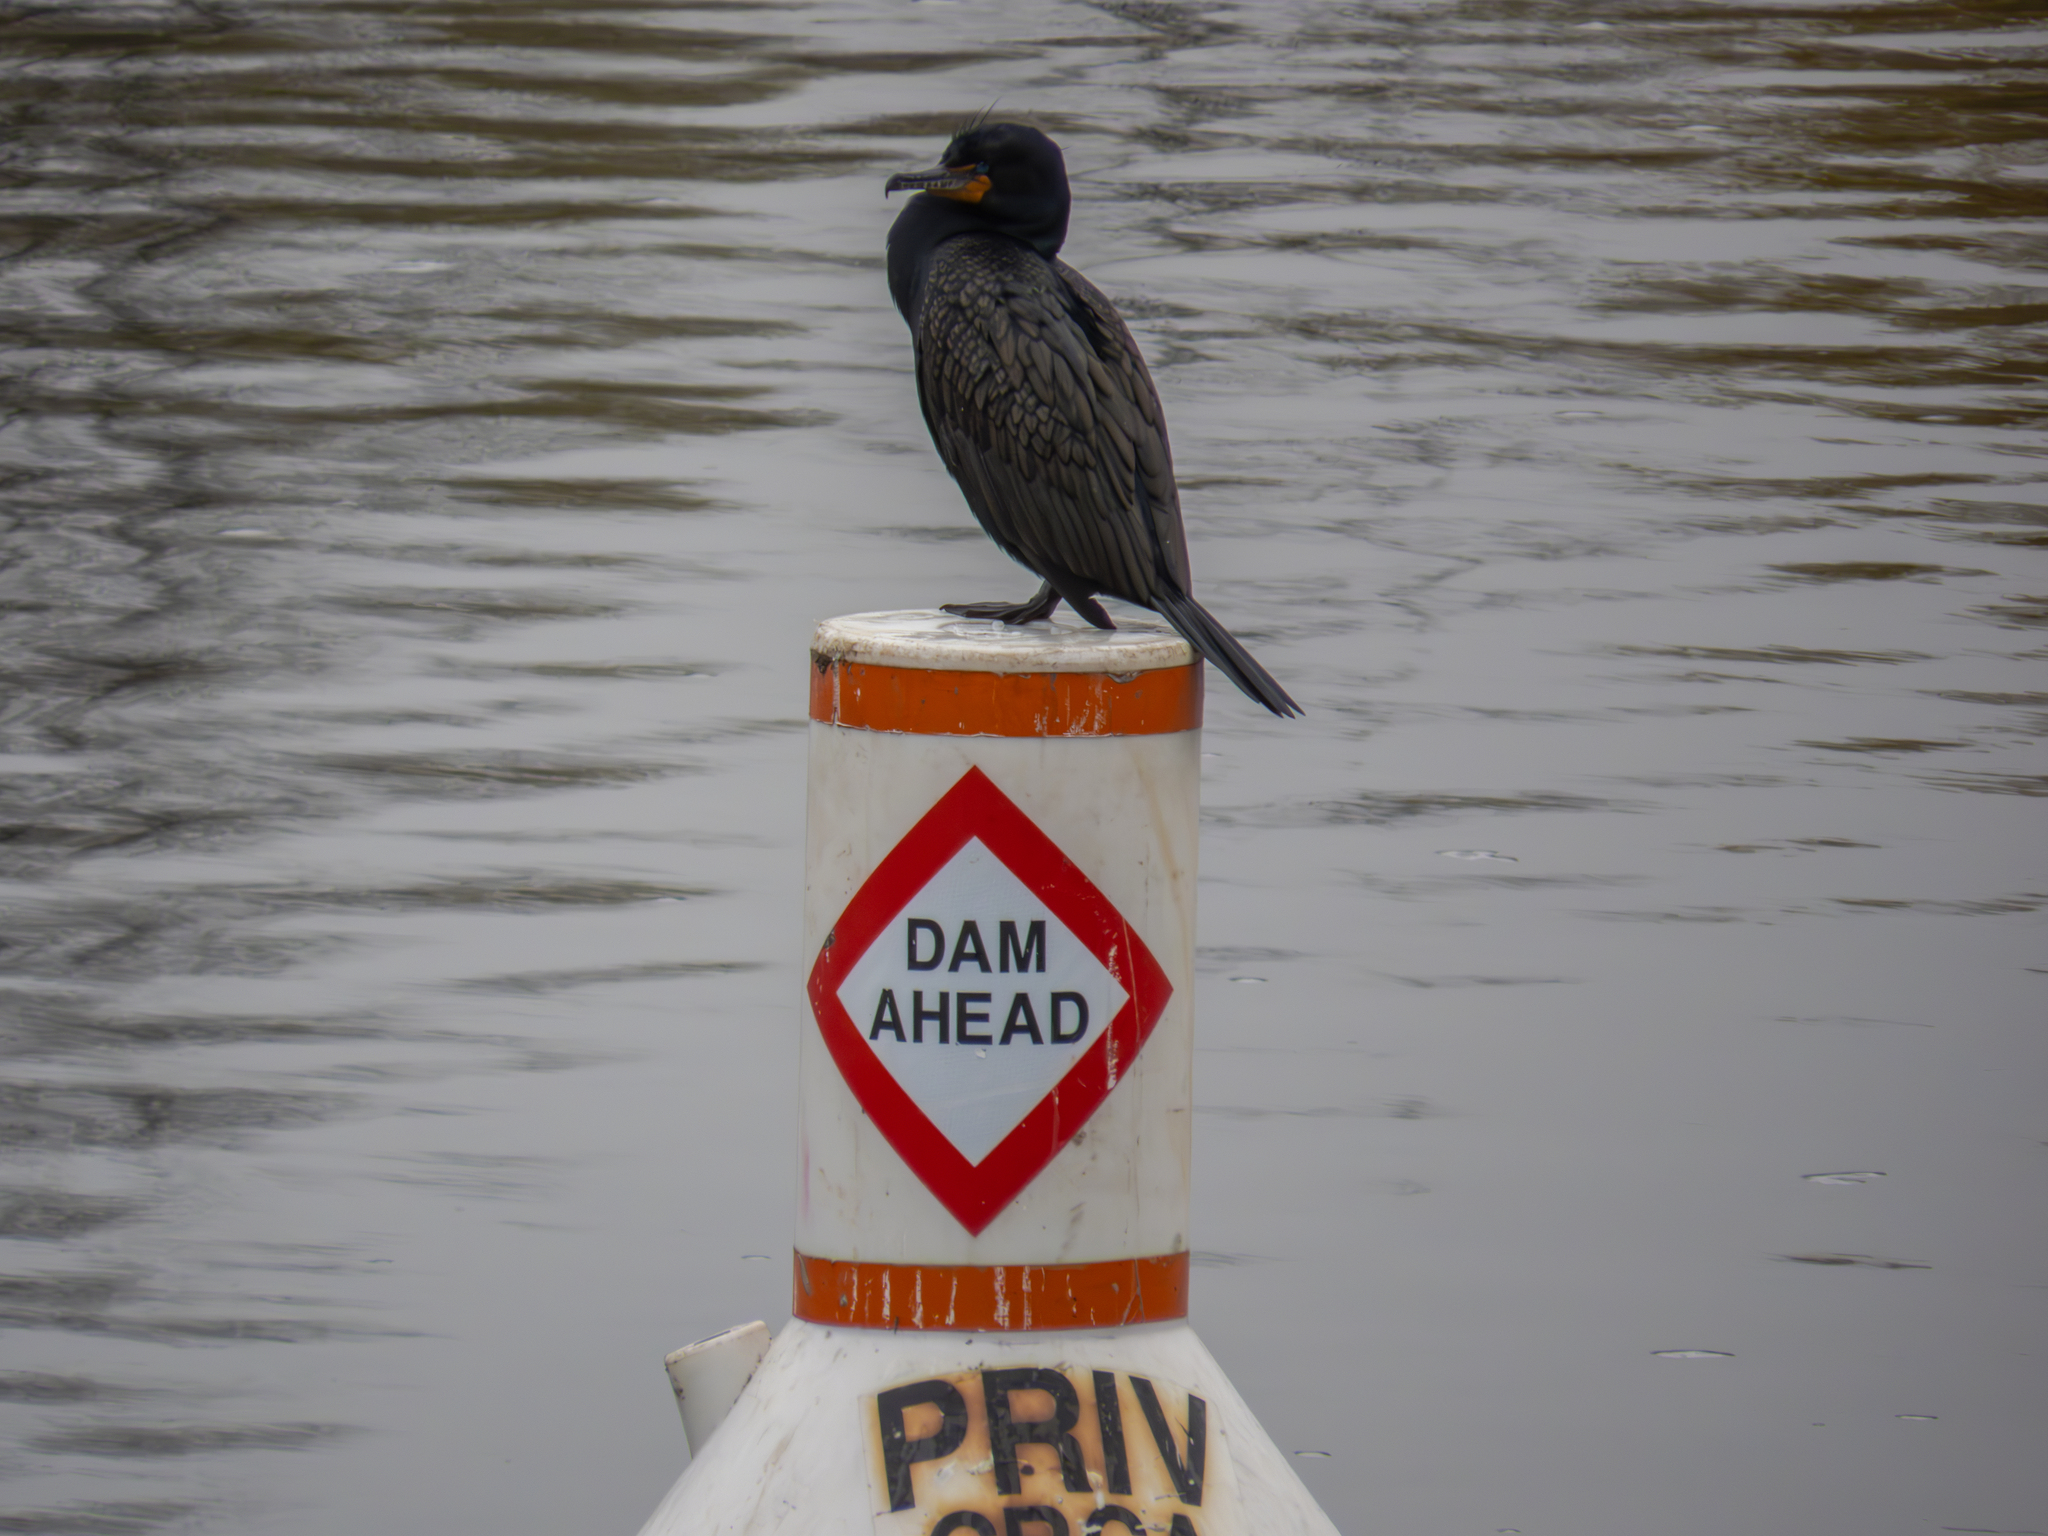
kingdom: Animalia
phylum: Chordata
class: Aves
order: Suliformes
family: Phalacrocoracidae
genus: Phalacrocorax
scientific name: Phalacrocorax auritus
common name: Double-crested cormorant
